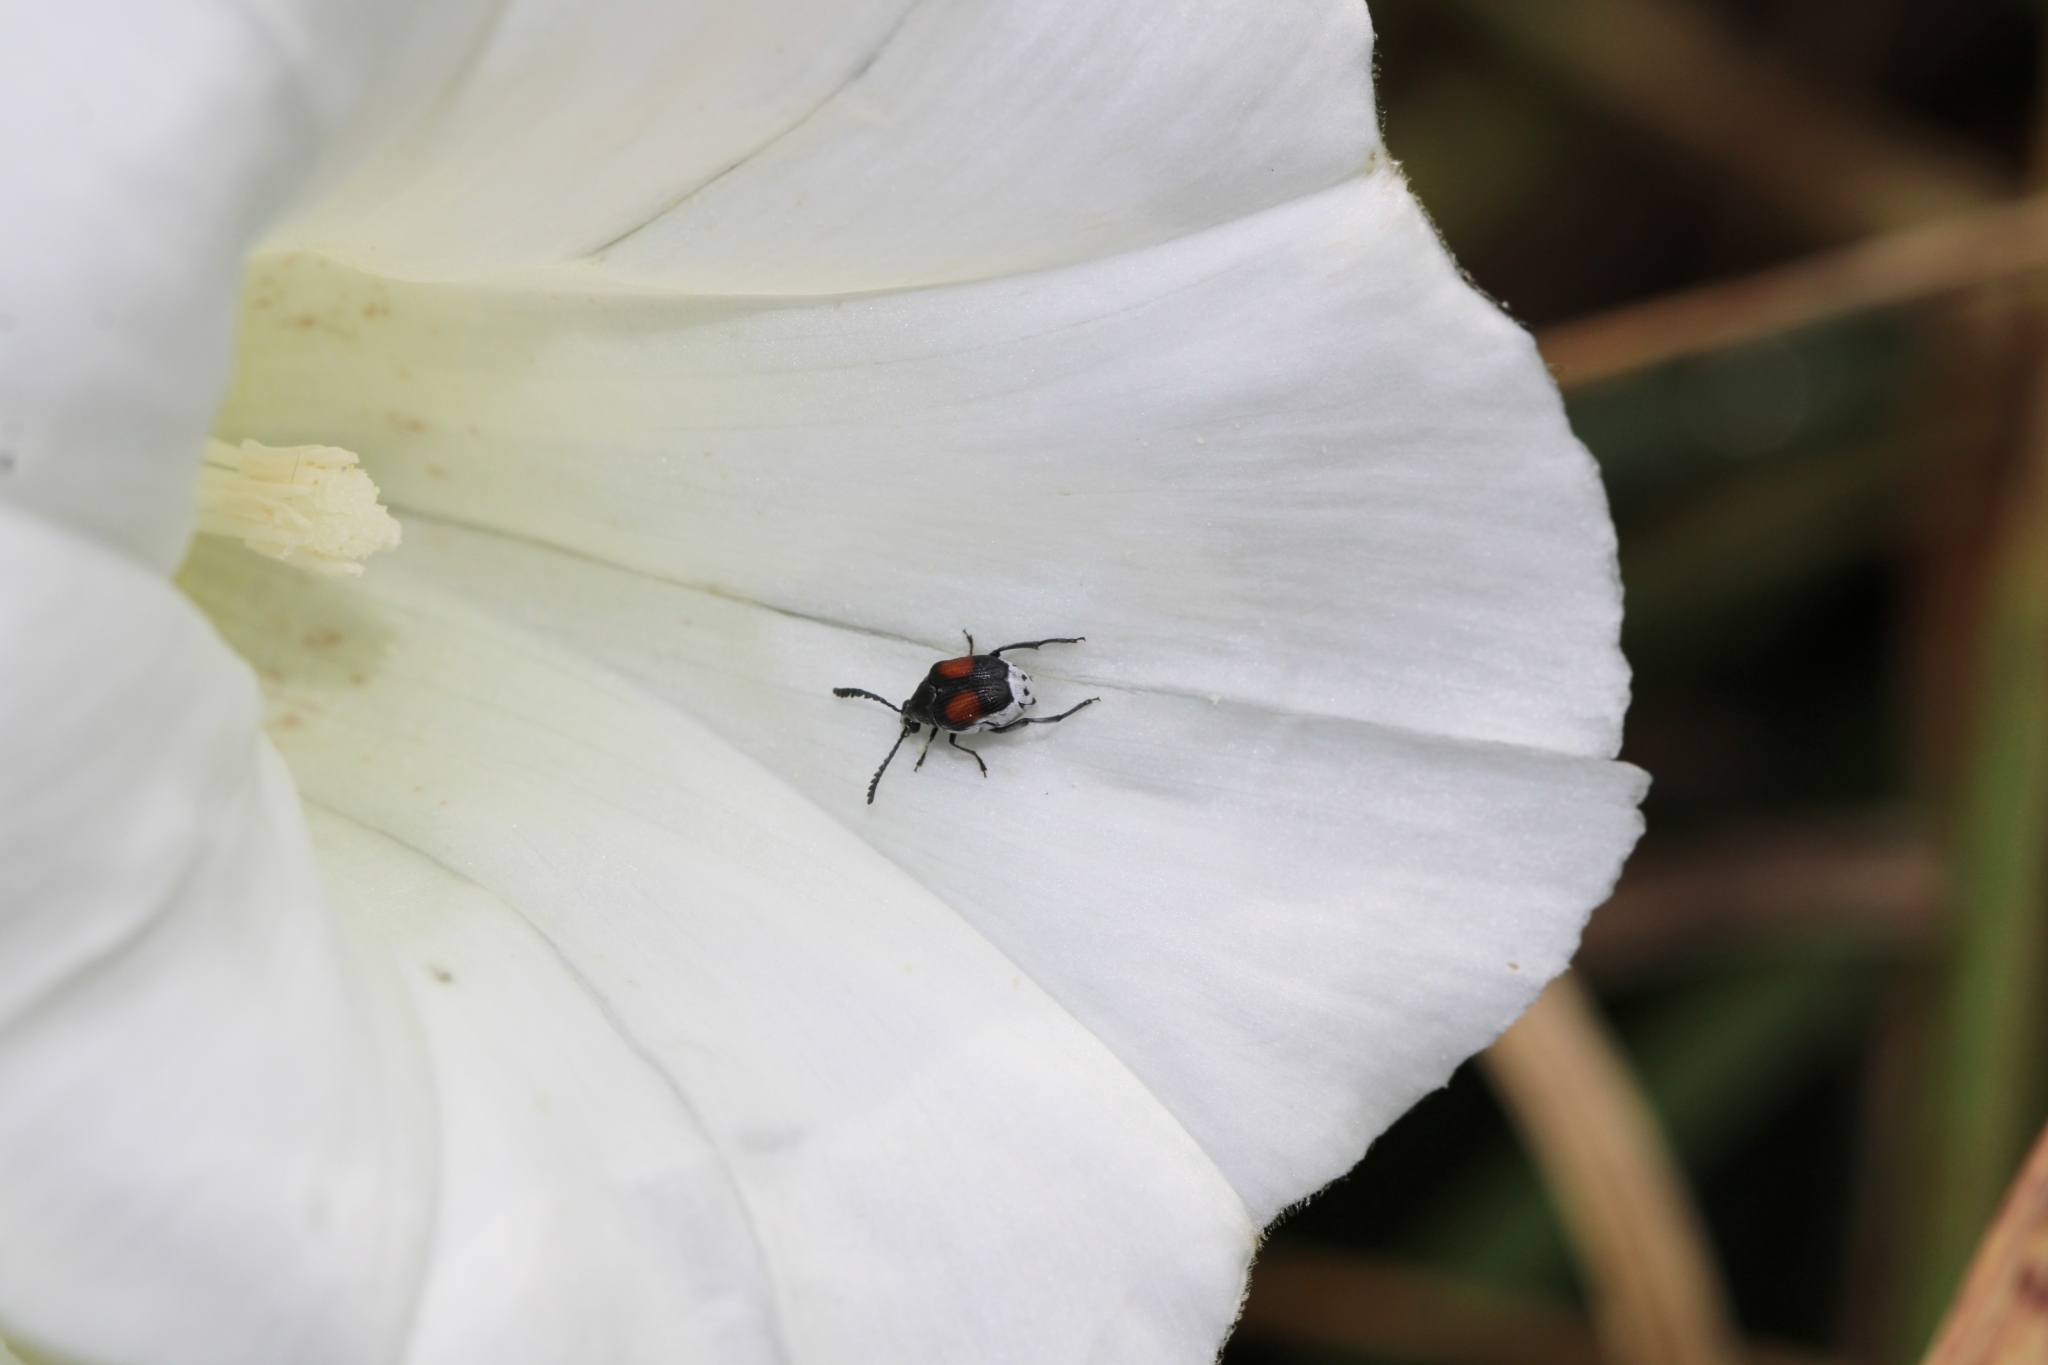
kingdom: Animalia
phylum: Arthropoda
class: Insecta
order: Coleoptera
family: Chrysomelidae
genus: Megacerus
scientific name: Megacerus discoidus
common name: Red megacerus
